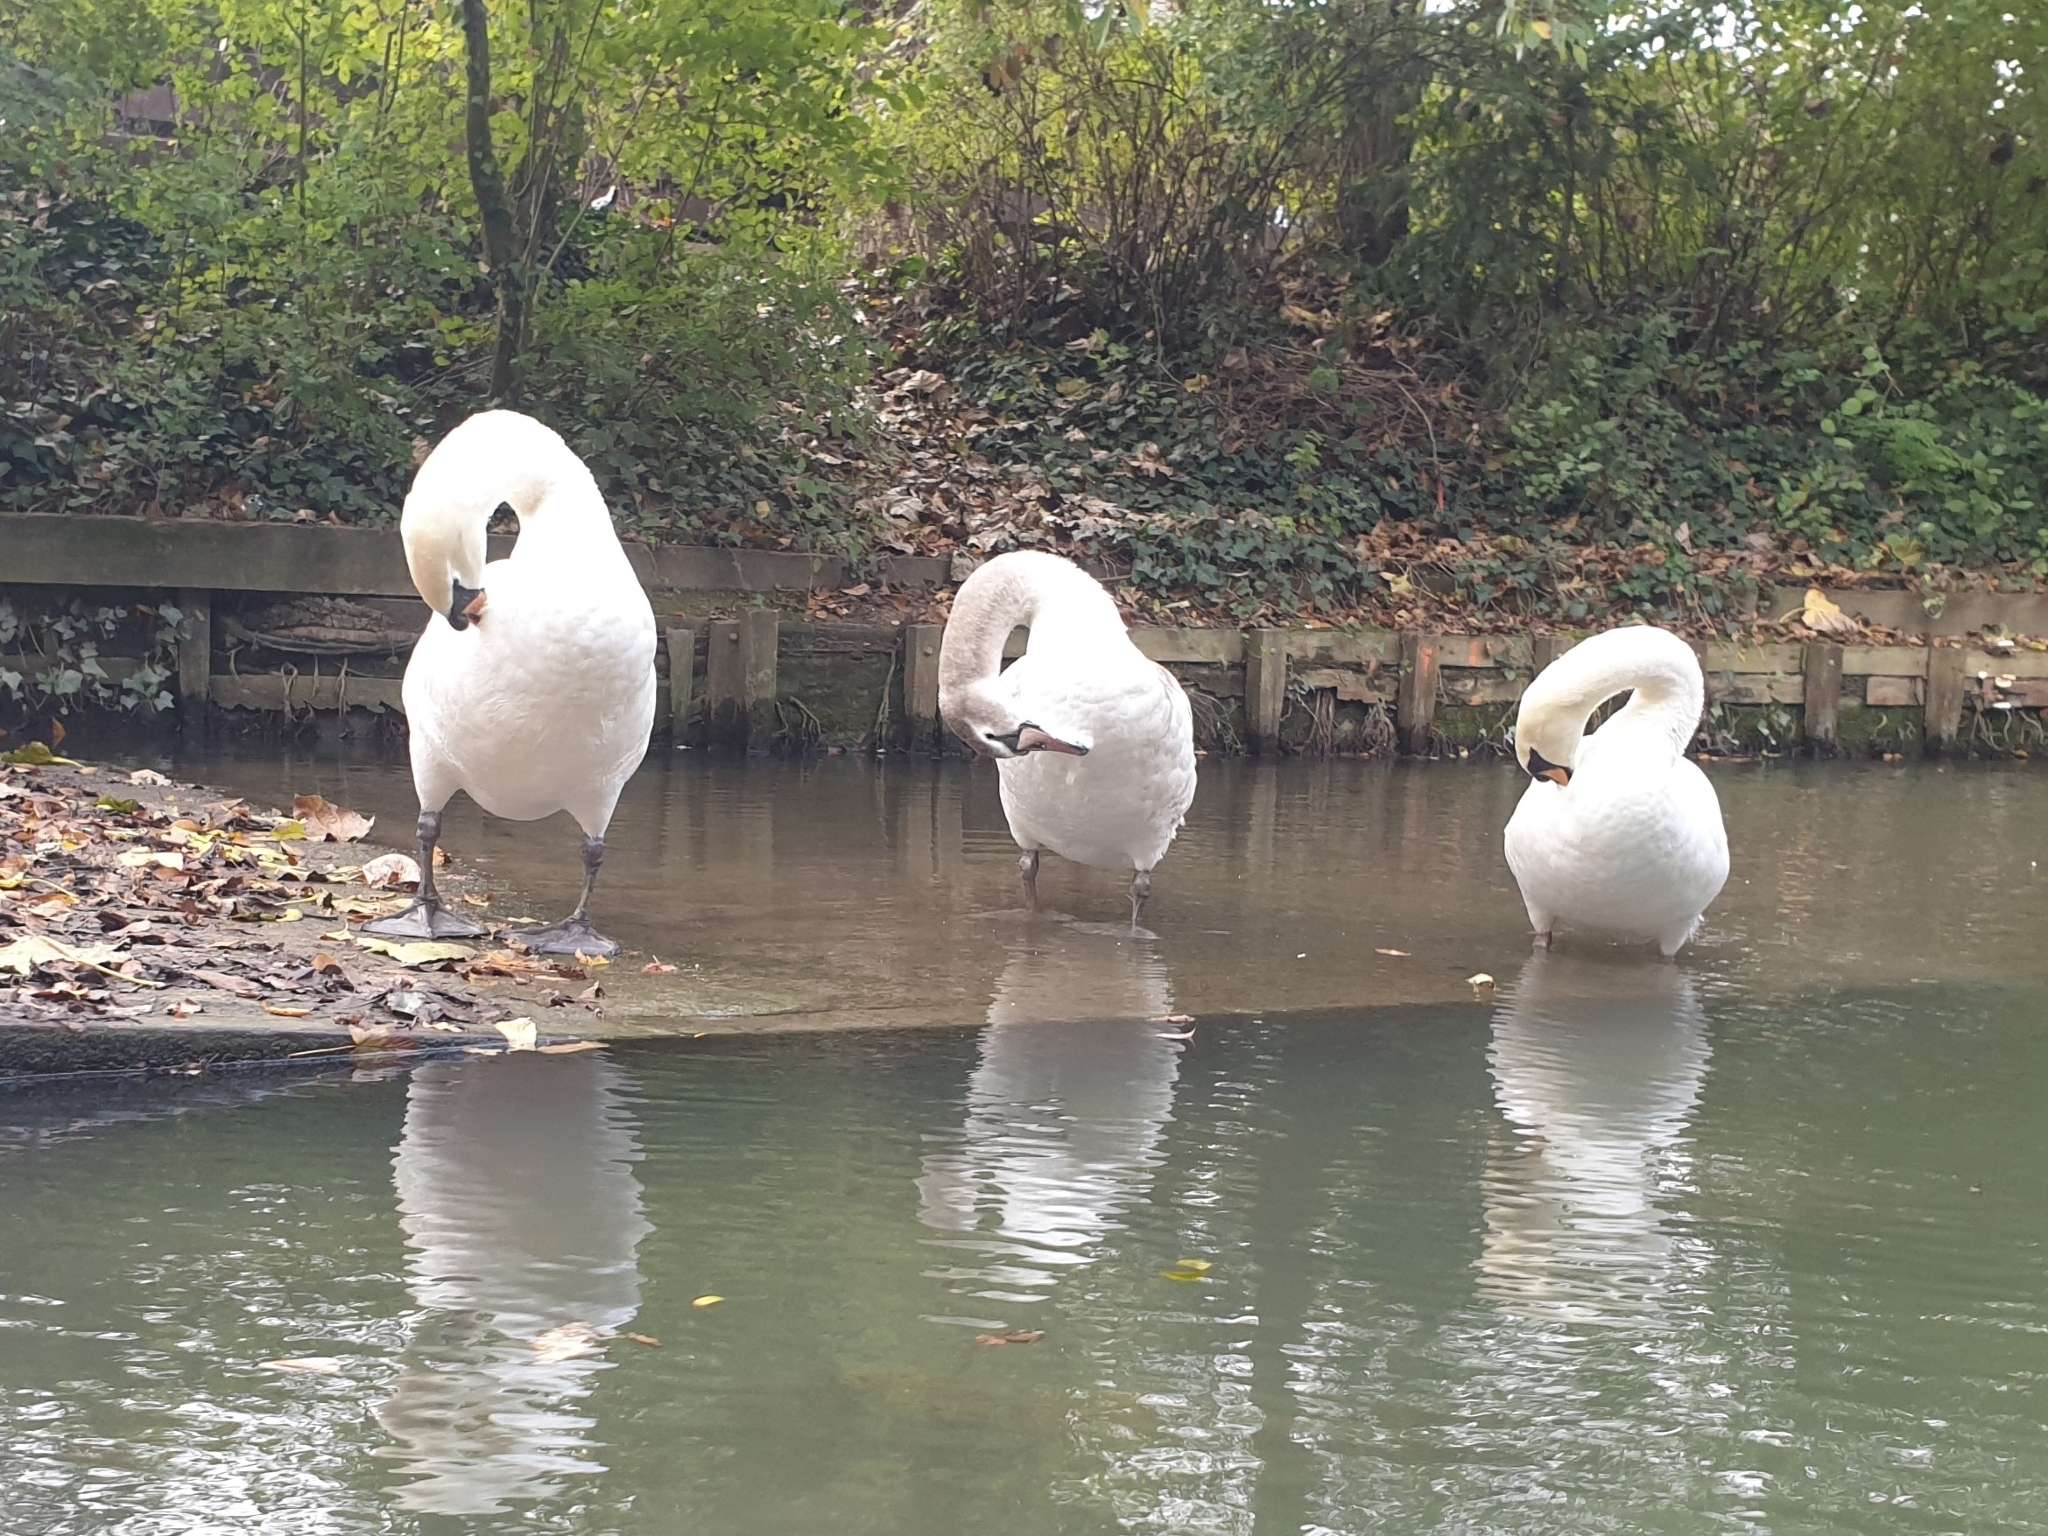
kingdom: Animalia
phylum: Chordata
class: Aves
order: Anseriformes
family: Anatidae
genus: Cygnus
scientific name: Cygnus olor
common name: Mute swan
